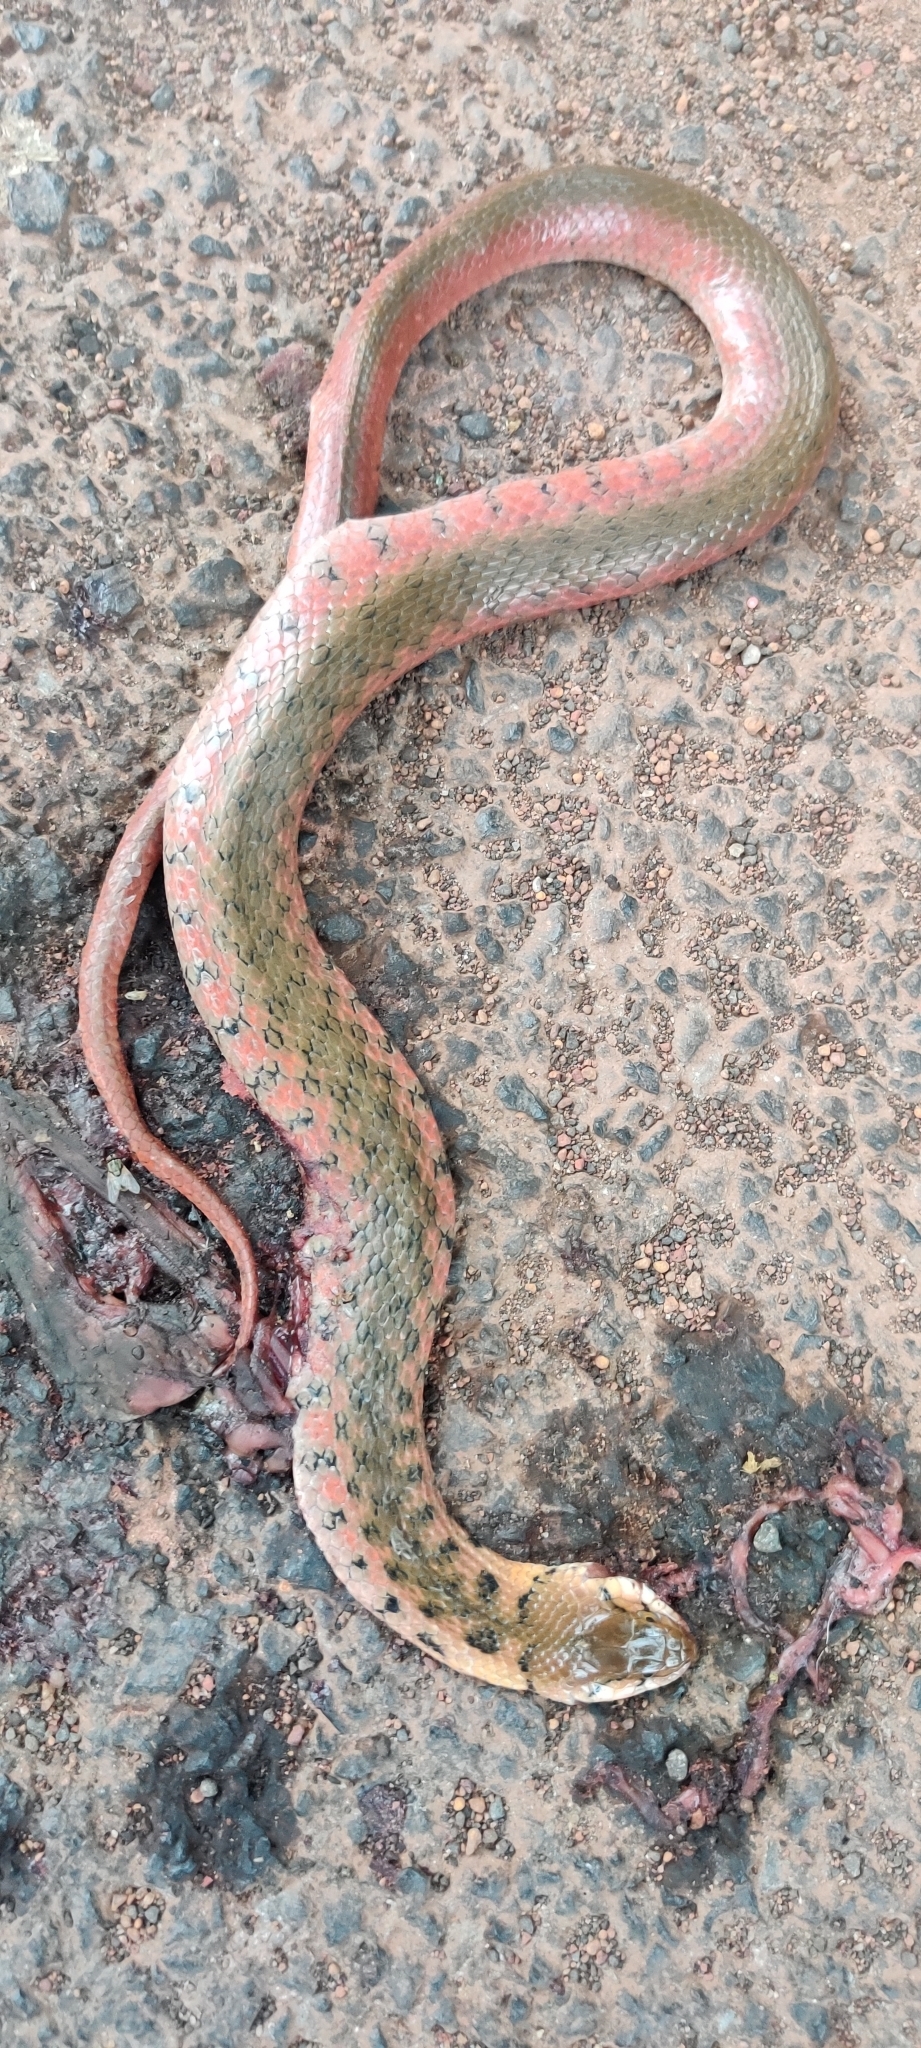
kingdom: Animalia
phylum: Chordata
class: Squamata
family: Colubridae
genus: Fowlea
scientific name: Fowlea piscator
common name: Asiatic water snake
